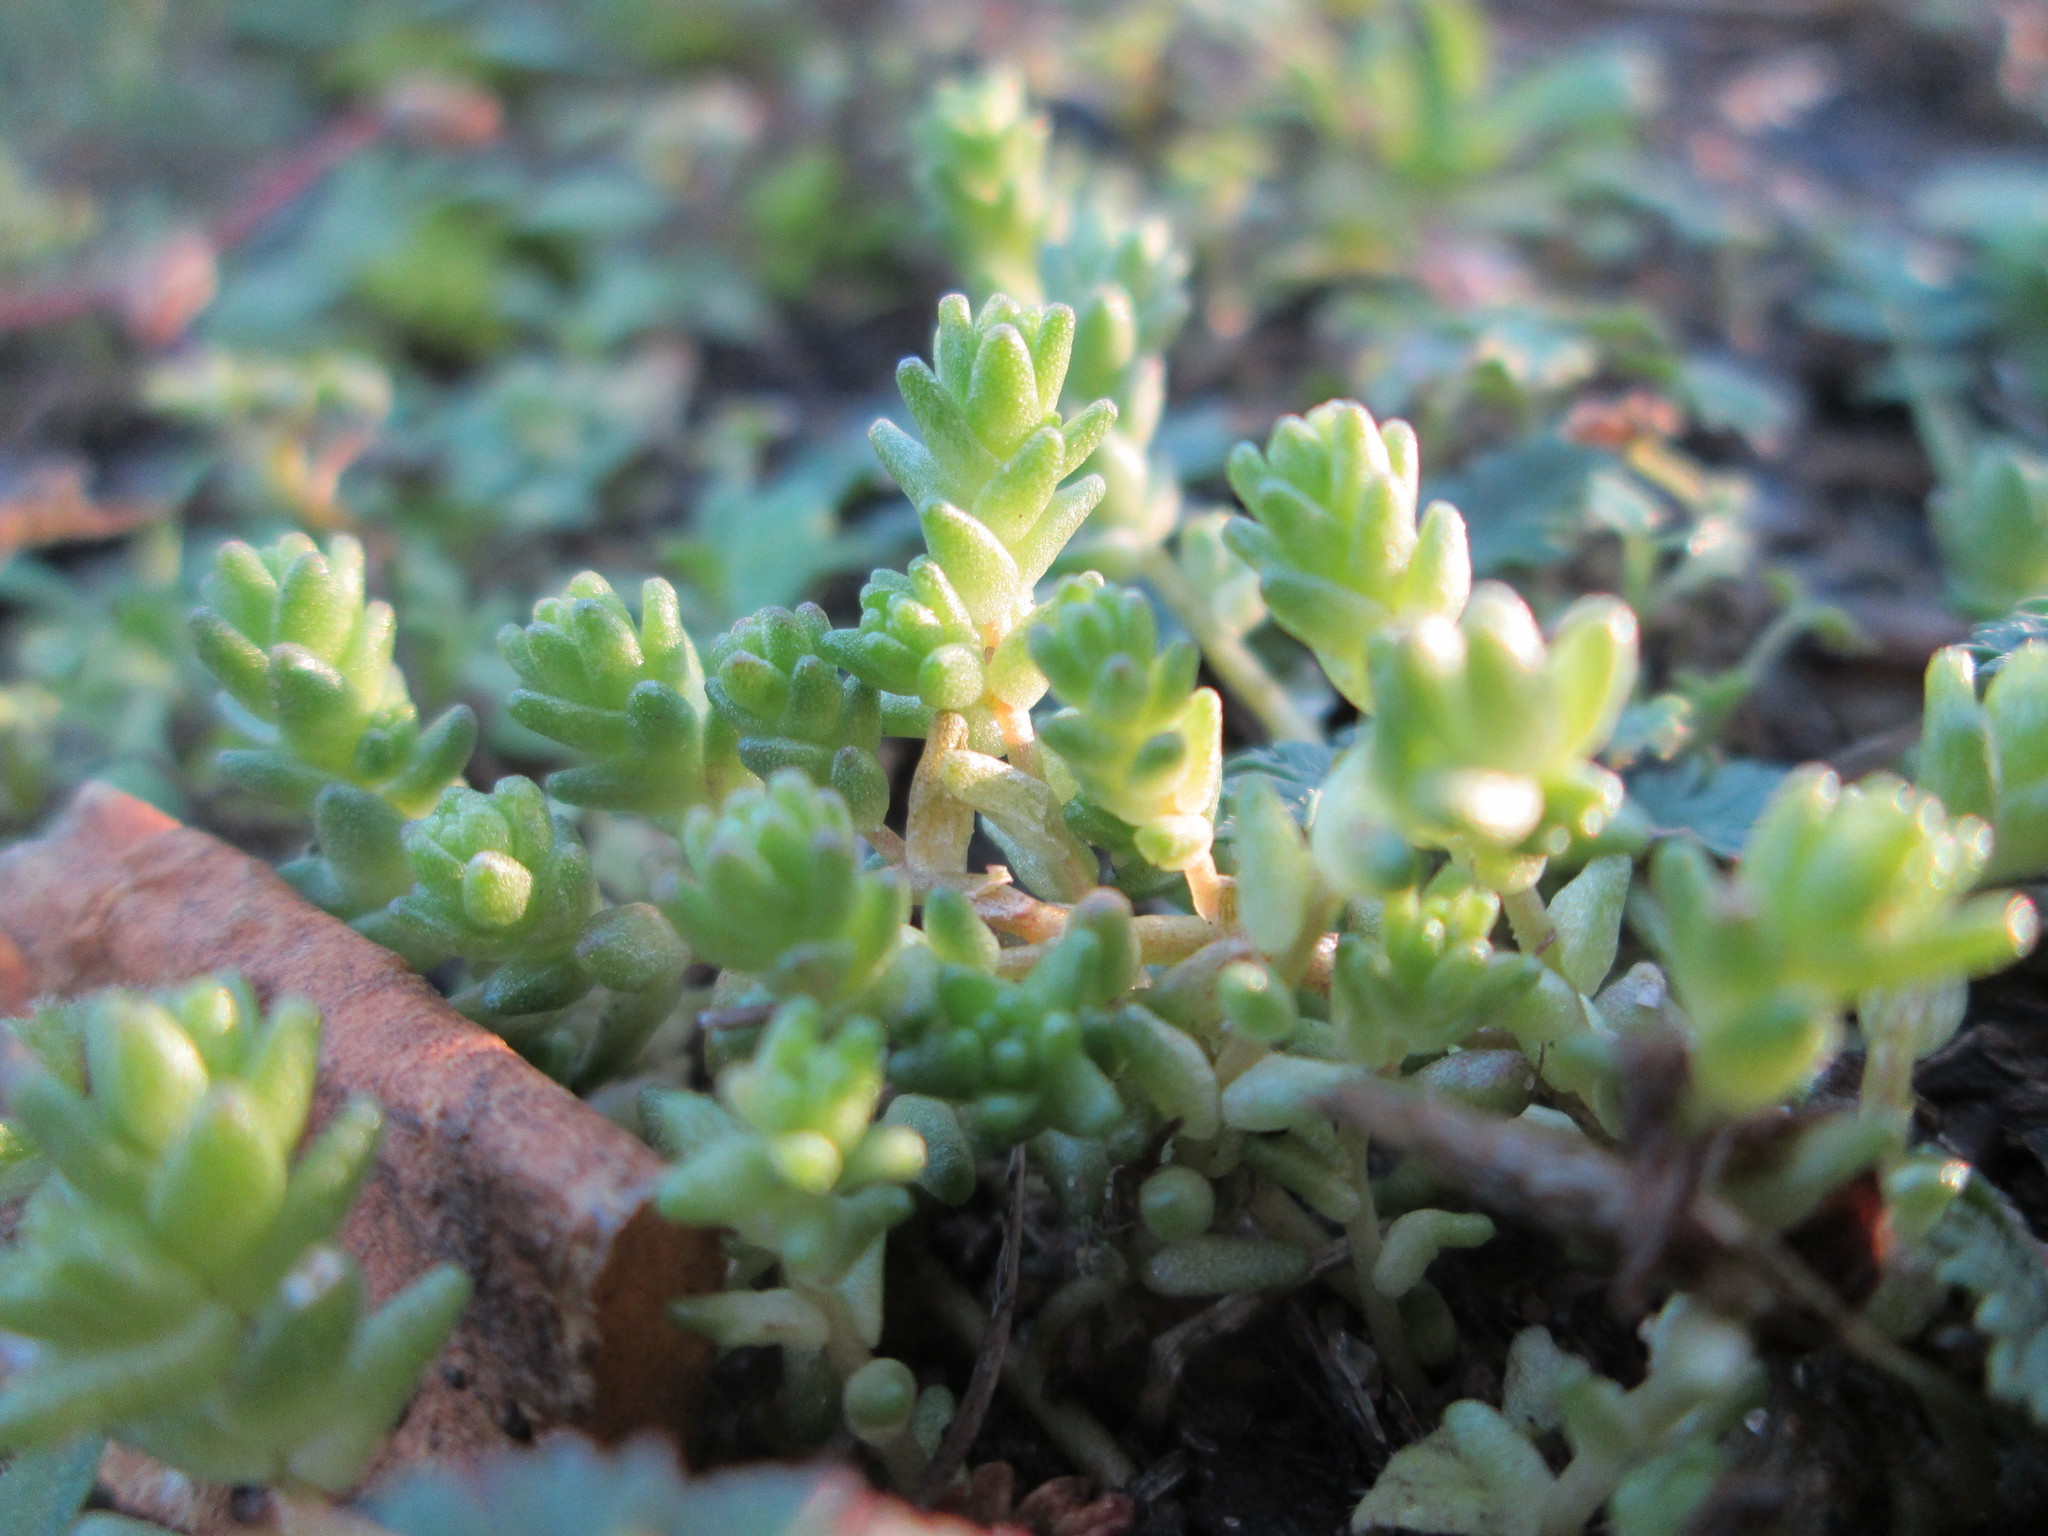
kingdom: Plantae
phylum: Tracheophyta
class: Magnoliopsida
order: Saxifragales
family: Crassulaceae
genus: Sedum
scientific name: Sedum acre
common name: Biting stonecrop
